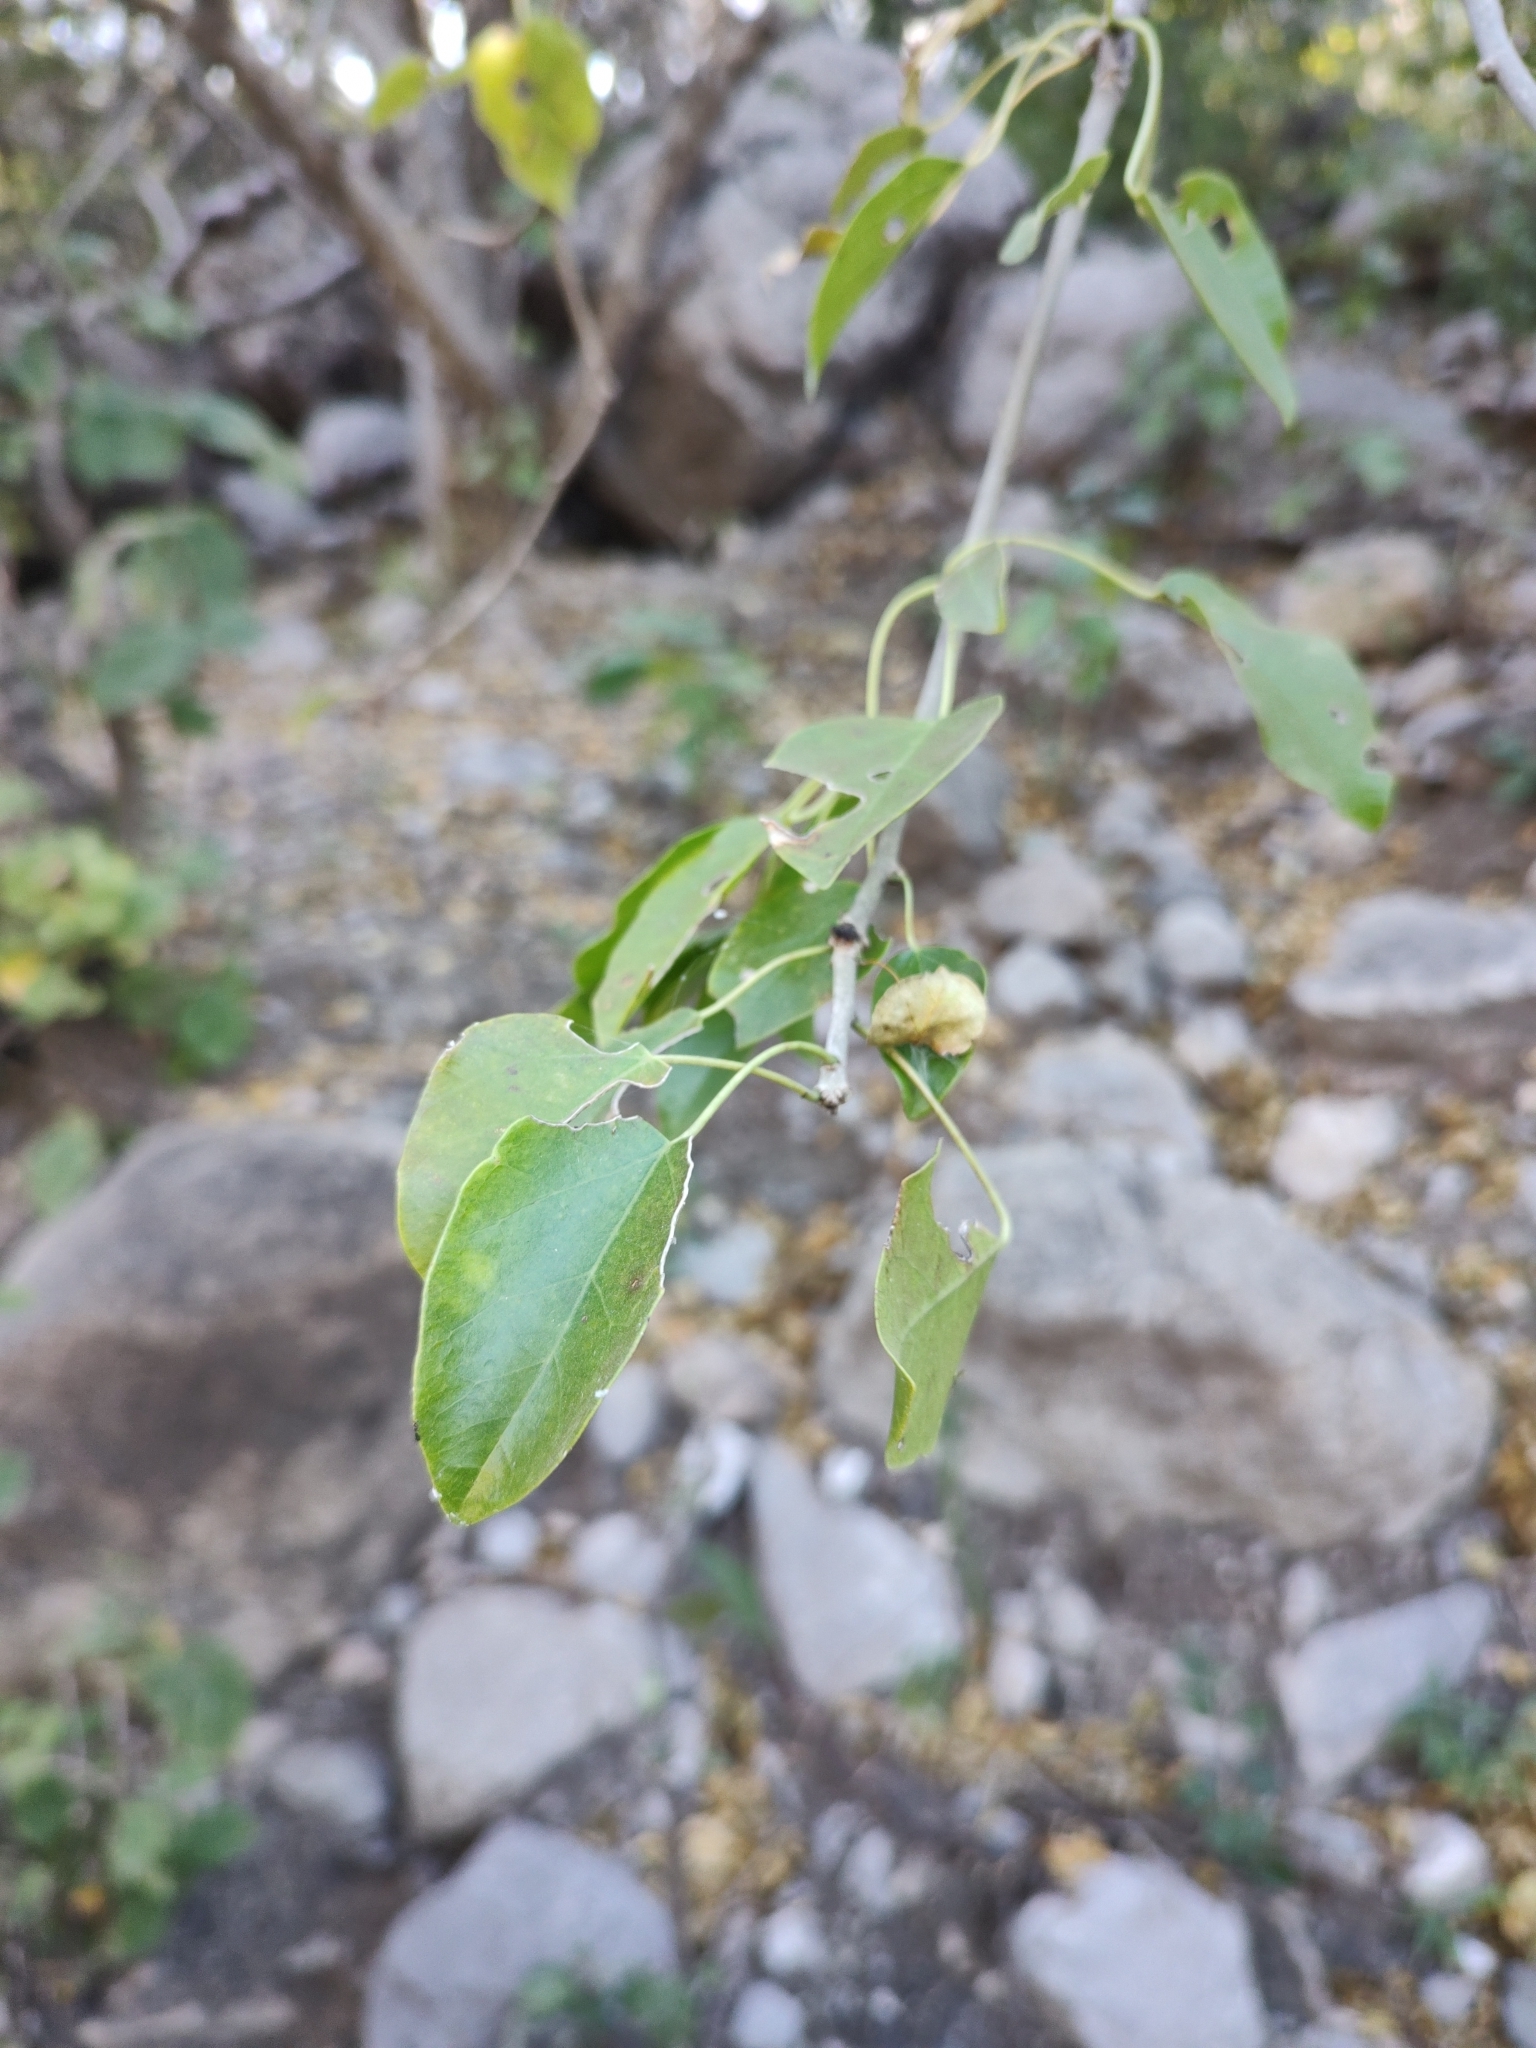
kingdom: Plantae
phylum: Tracheophyta
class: Magnoliopsida
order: Malpighiales
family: Euphorbiaceae
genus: Jatropha
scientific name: Jatropha dehganii
